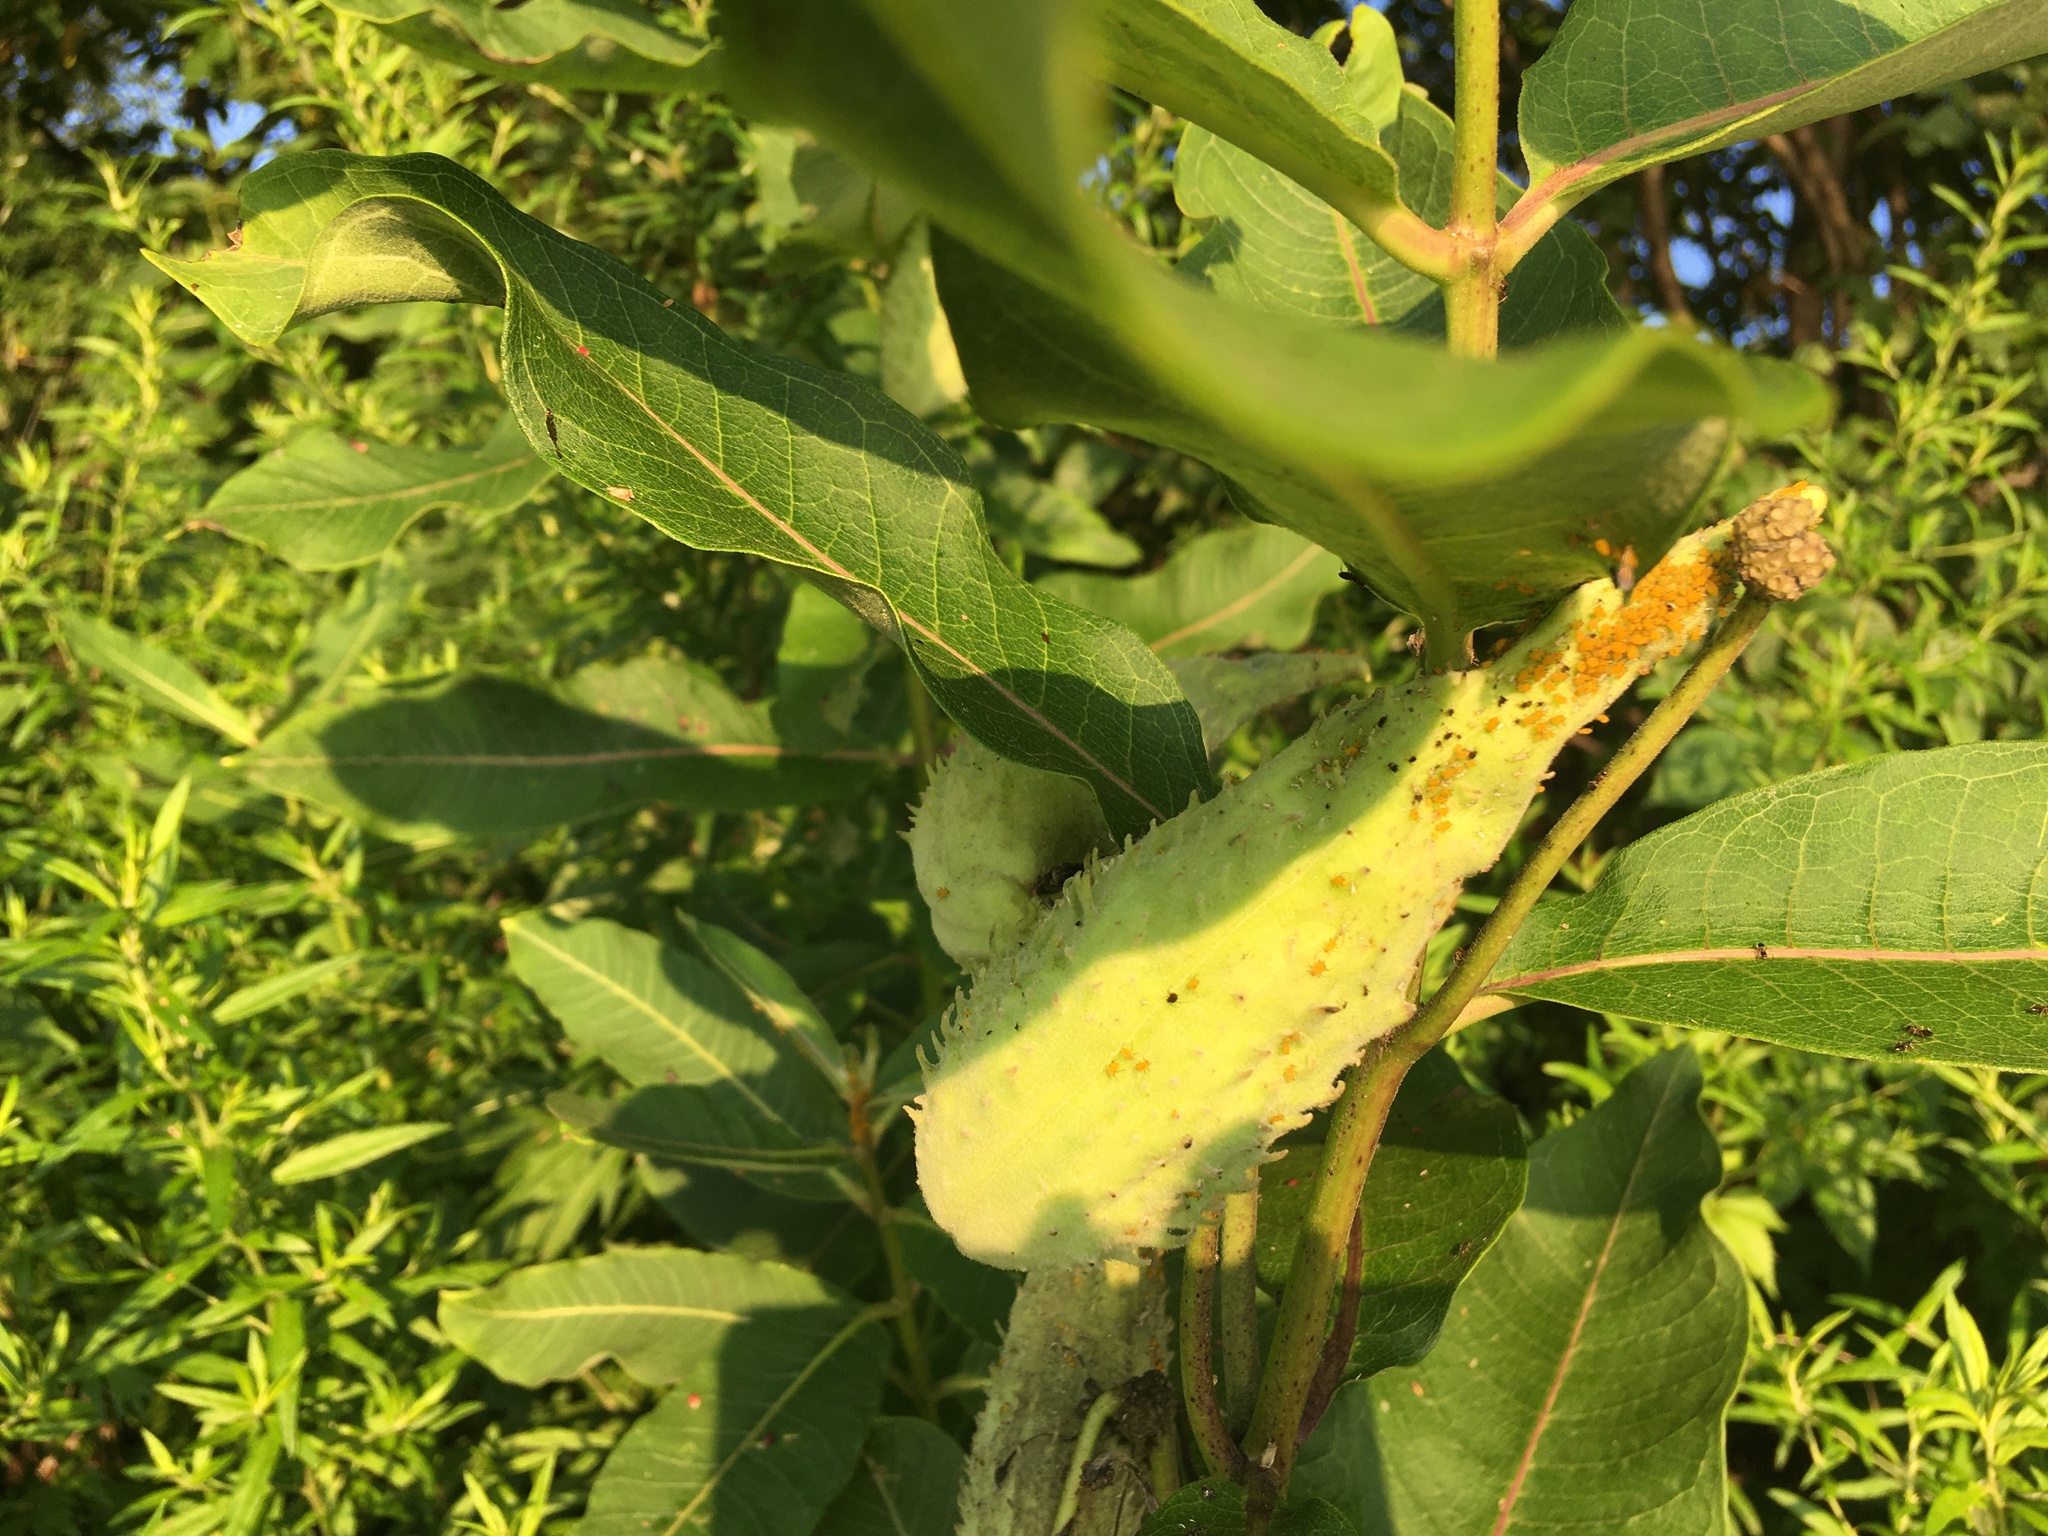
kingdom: Plantae
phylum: Tracheophyta
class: Magnoliopsida
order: Gentianales
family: Apocynaceae
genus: Asclepias
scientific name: Asclepias syriaca
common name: Common milkweed
